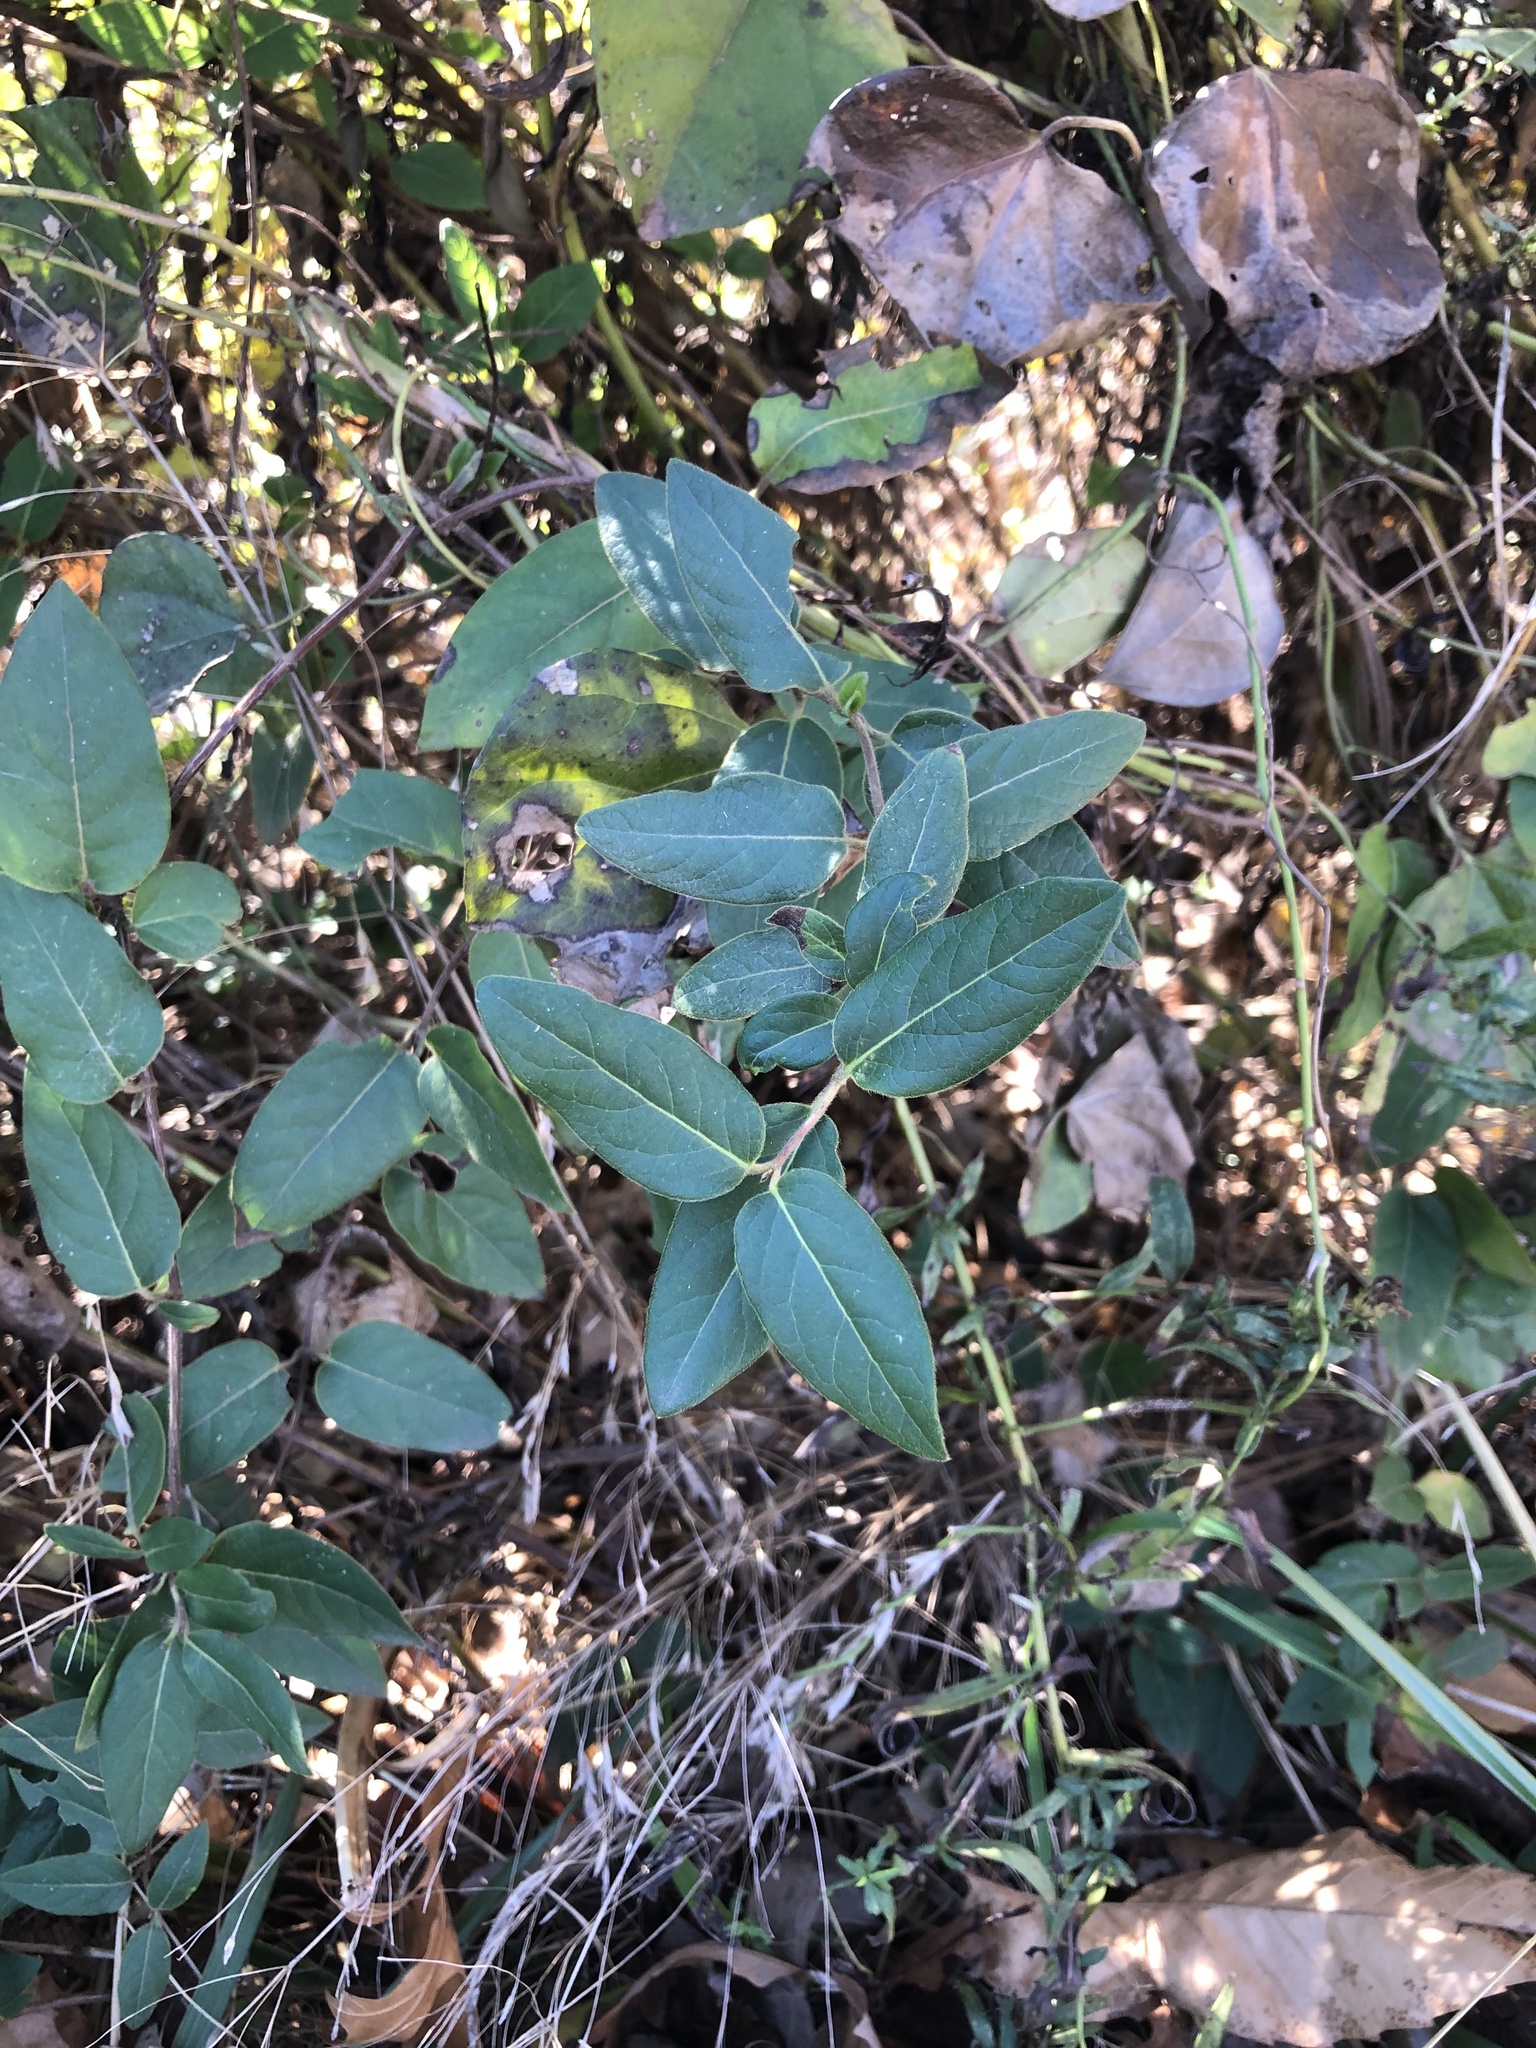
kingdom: Plantae
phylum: Tracheophyta
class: Magnoliopsida
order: Dipsacales
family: Caprifoliaceae
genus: Lonicera
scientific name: Lonicera japonica
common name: Japanese honeysuckle
